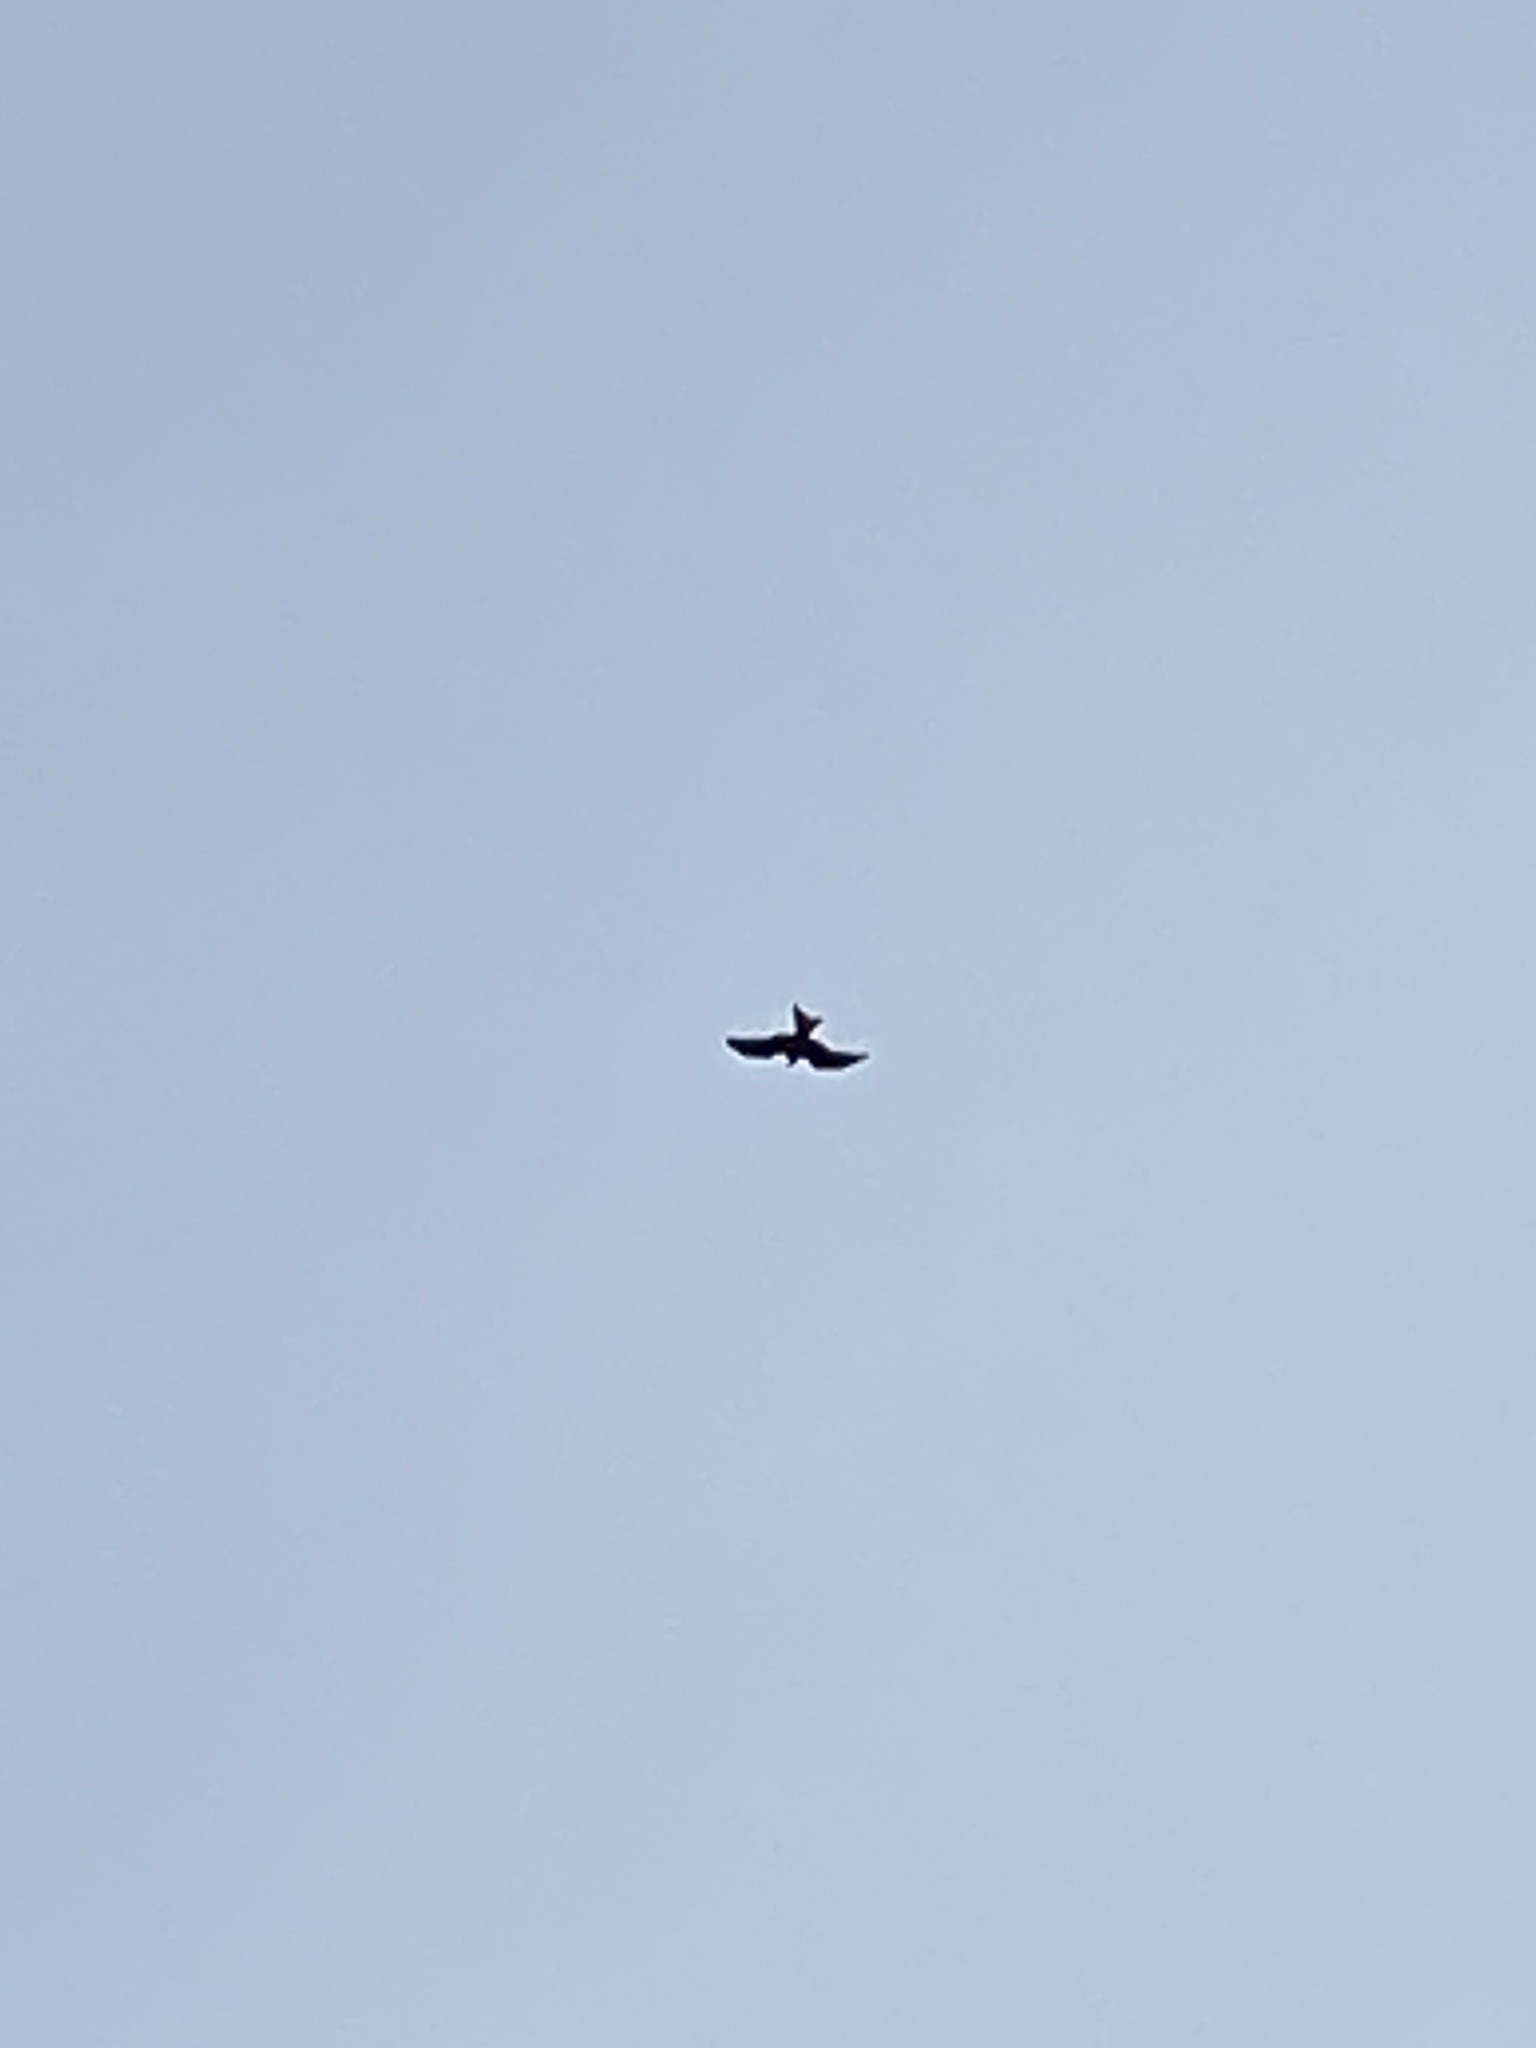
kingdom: Animalia
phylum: Chordata
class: Aves
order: Accipitriformes
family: Accipitridae
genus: Milvus
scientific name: Milvus milvus
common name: Red kite
